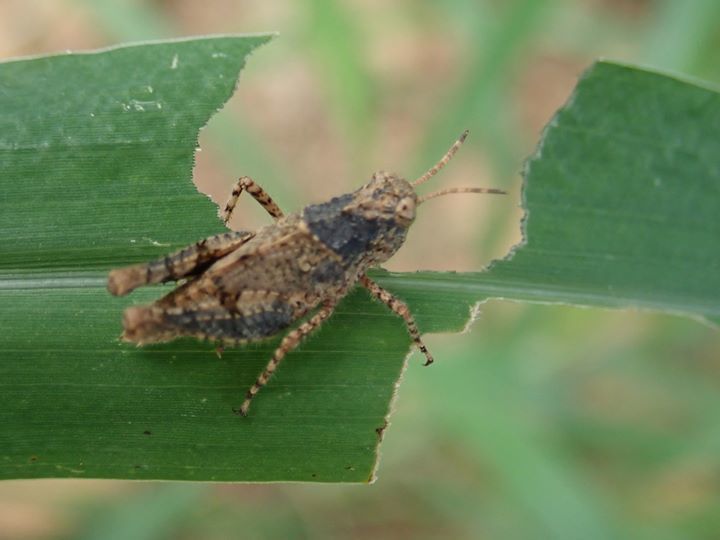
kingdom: Animalia
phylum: Arthropoda
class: Insecta
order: Orthoptera
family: Acrididae
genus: Trilophidia
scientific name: Trilophidia annulata
